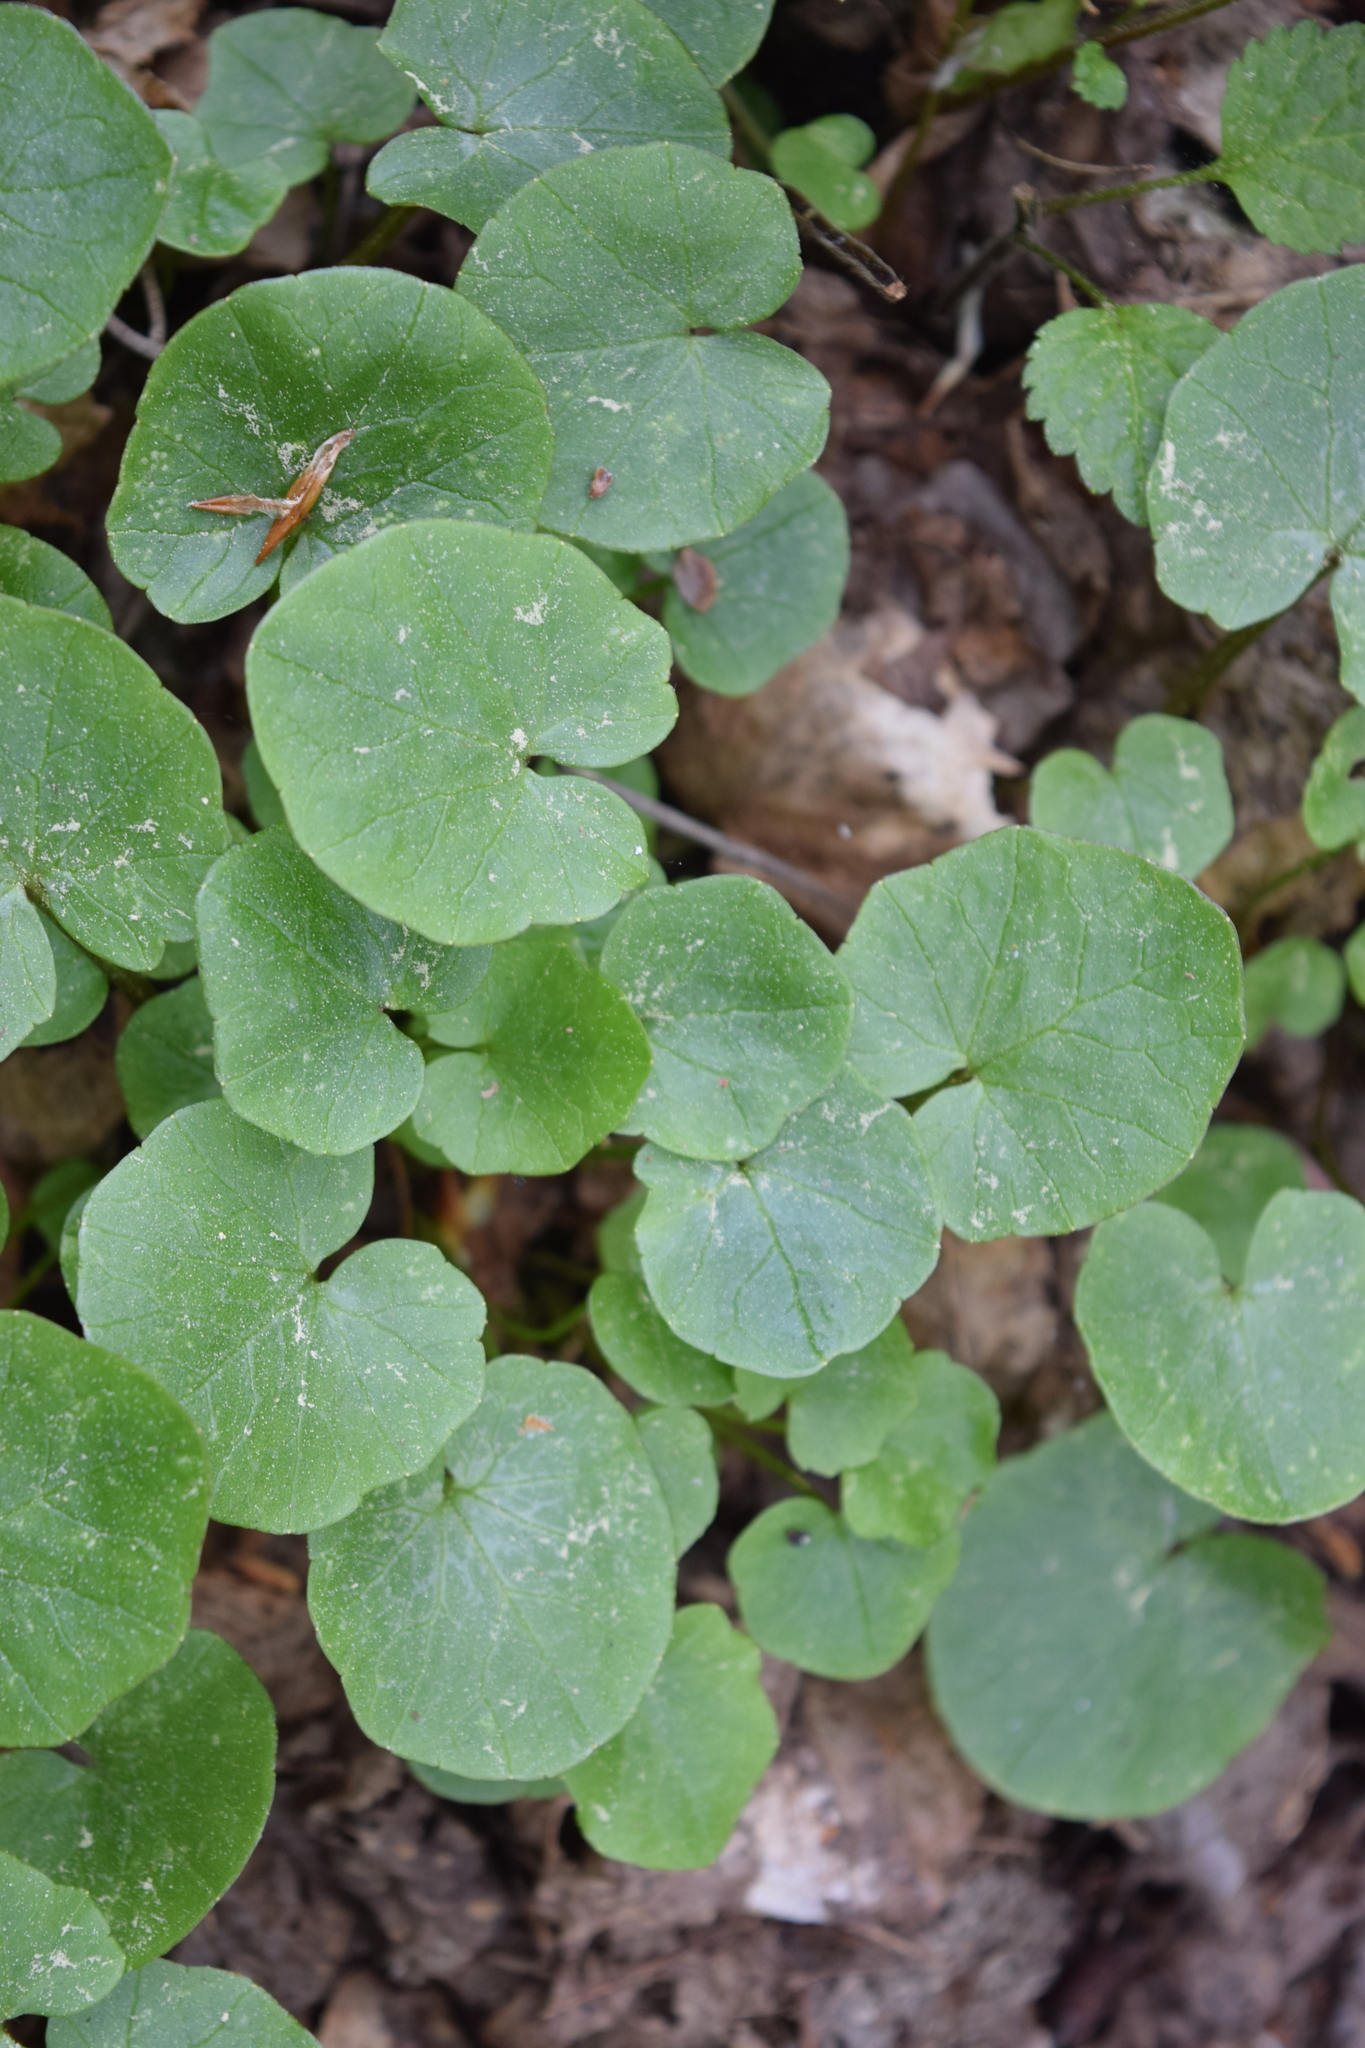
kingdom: Plantae
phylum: Tracheophyta
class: Magnoliopsida
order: Ranunculales
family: Ranunculaceae
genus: Ficaria
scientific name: Ficaria verna
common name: Lesser celandine
